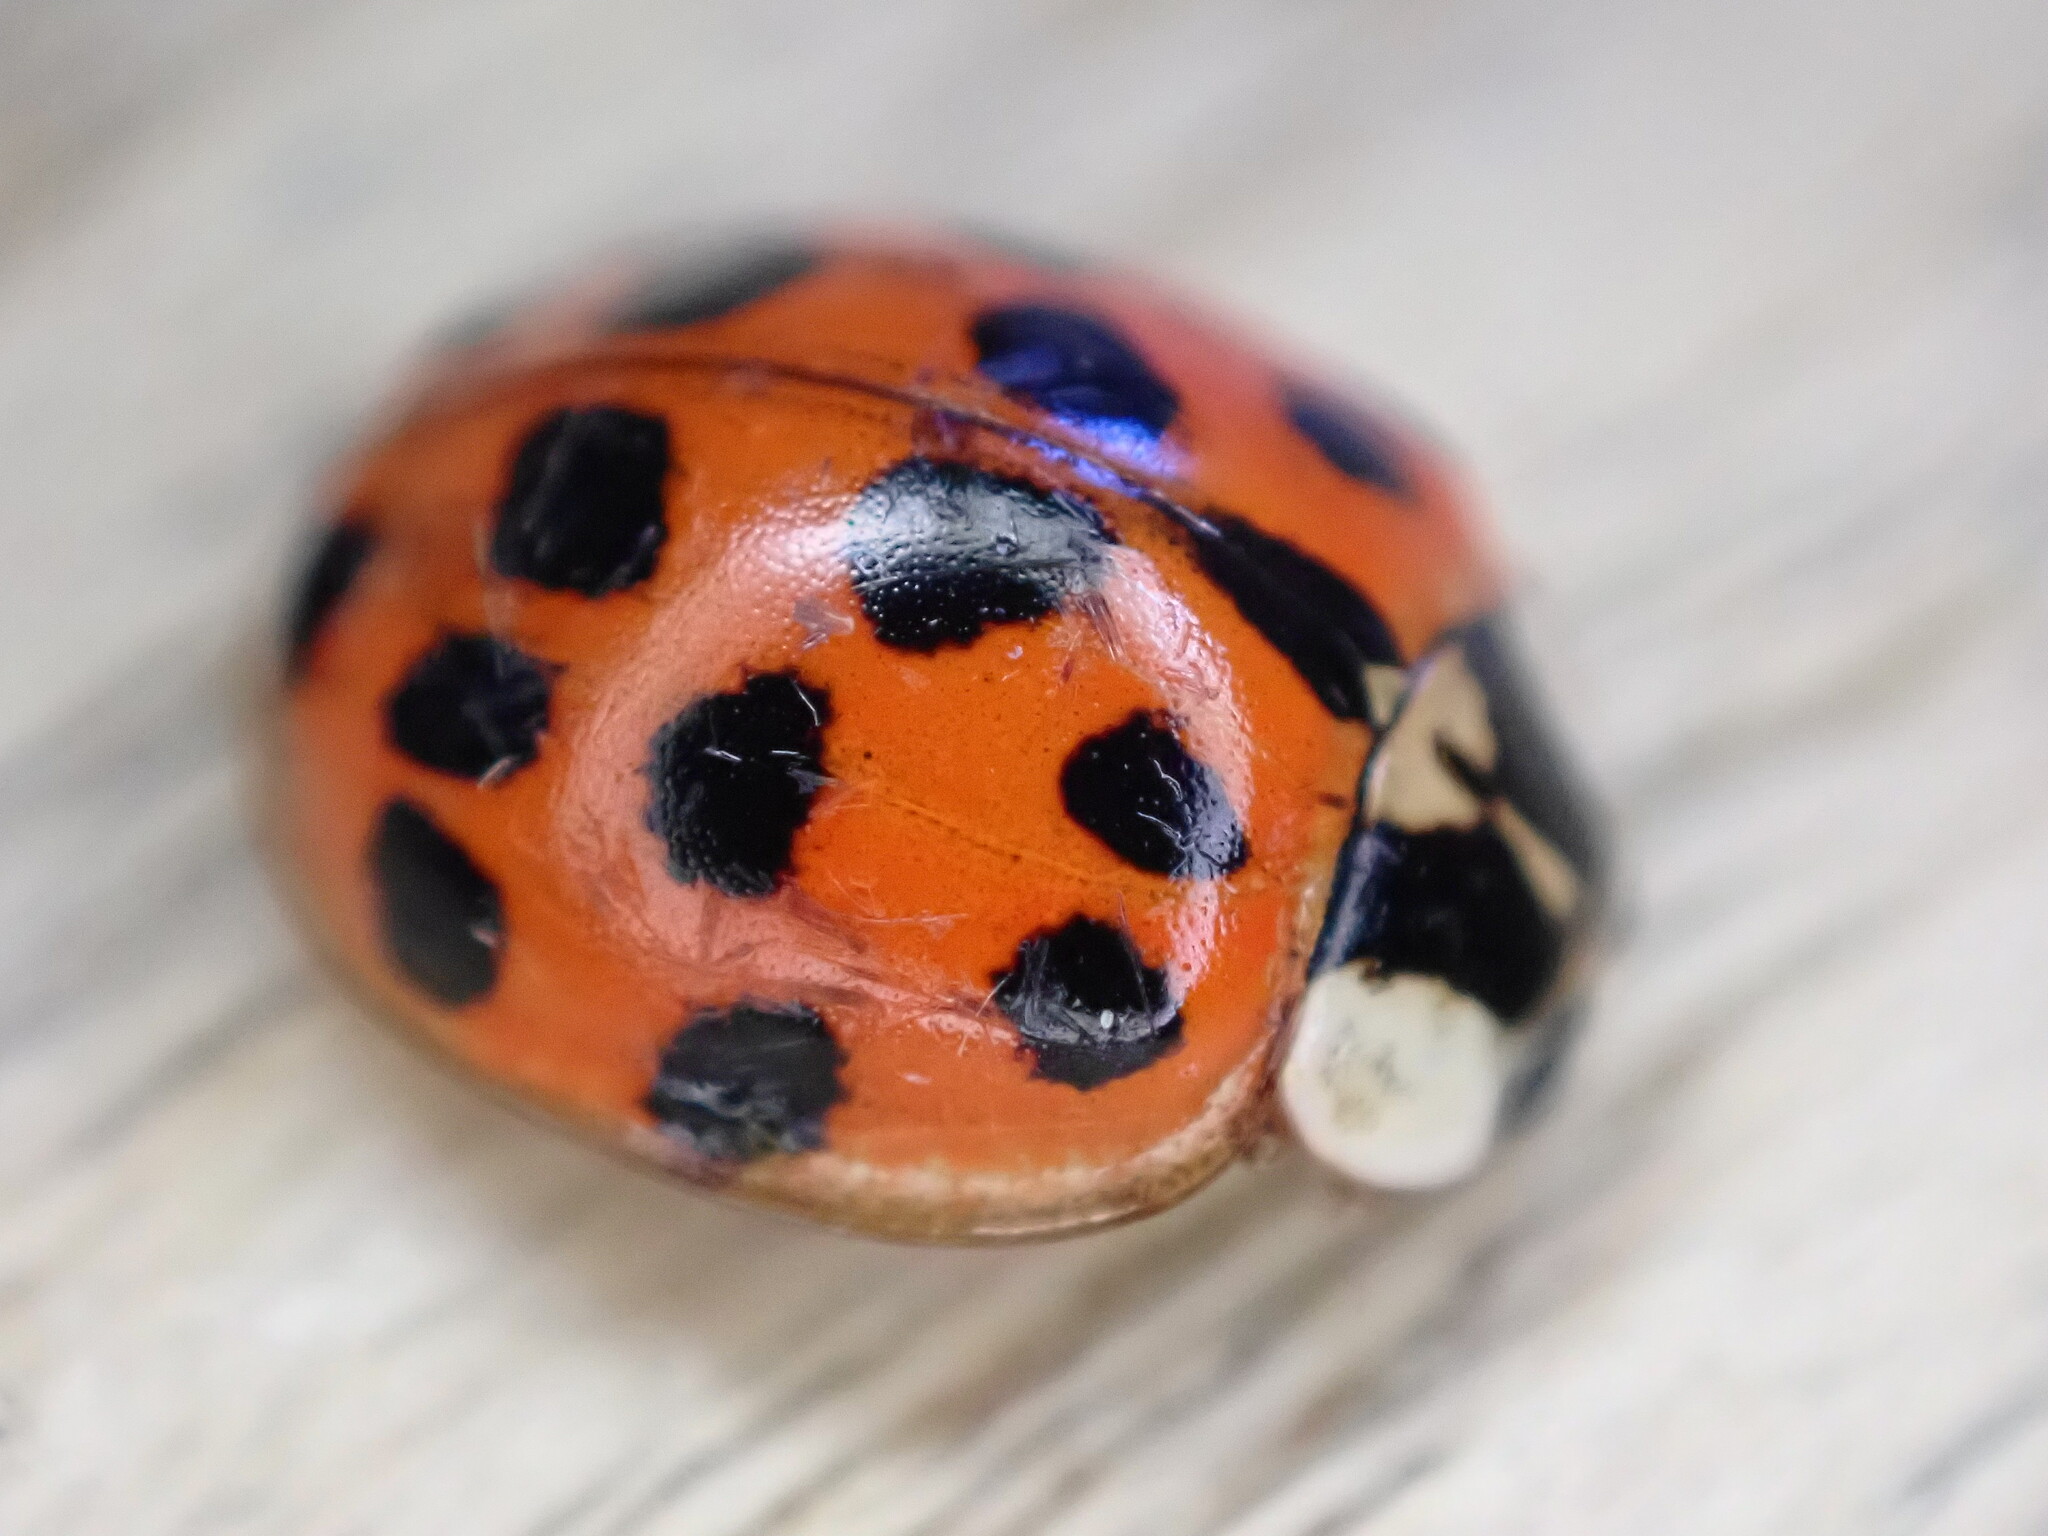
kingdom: Animalia
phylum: Arthropoda
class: Insecta
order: Coleoptera
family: Coccinellidae
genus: Harmonia
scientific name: Harmonia axyridis
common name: Harlequin ladybird
